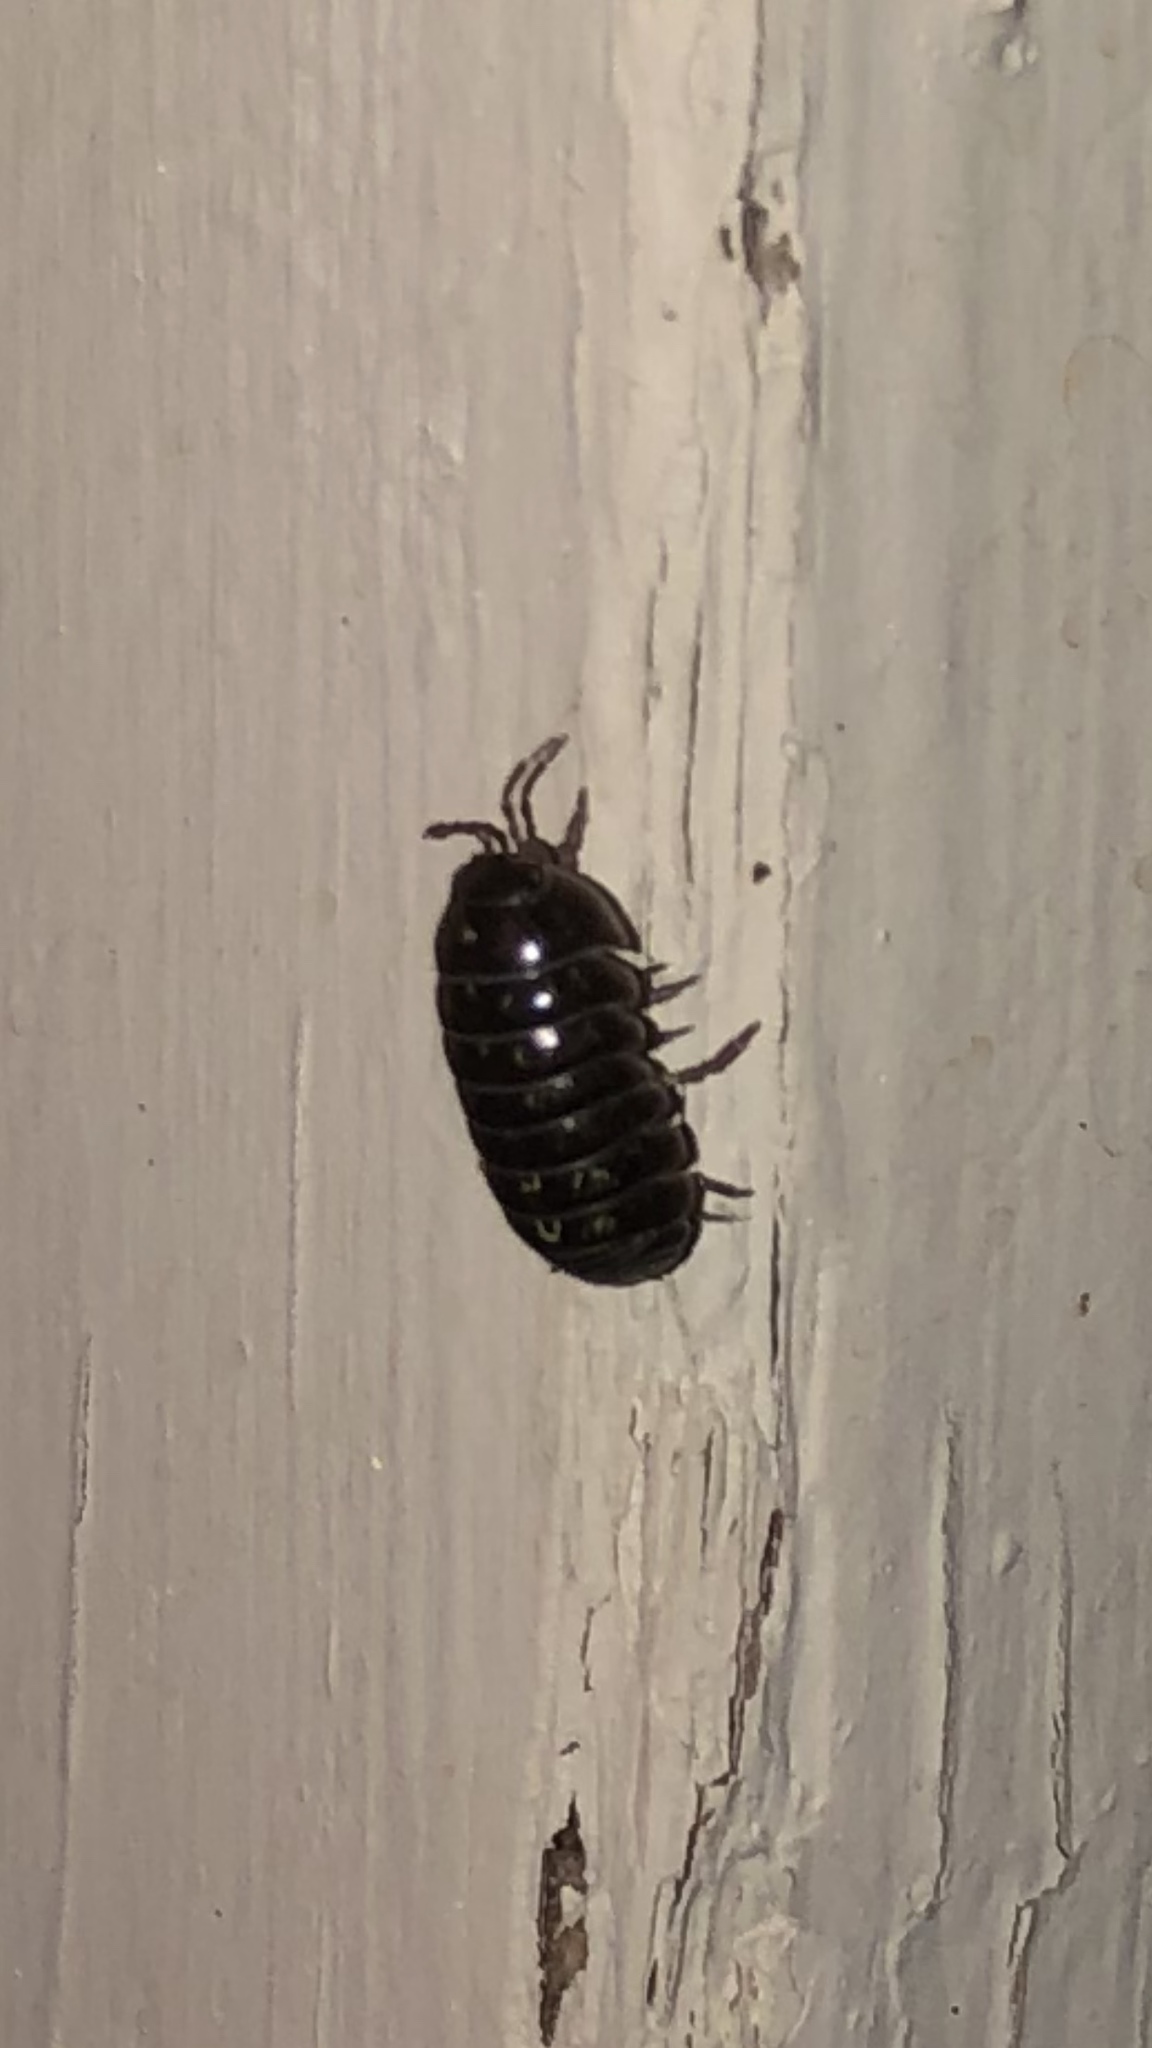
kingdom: Animalia
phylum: Arthropoda
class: Malacostraca
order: Isopoda
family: Armadillidiidae
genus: Armadillidium
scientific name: Armadillidium vulgare
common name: Common pill woodlouse
